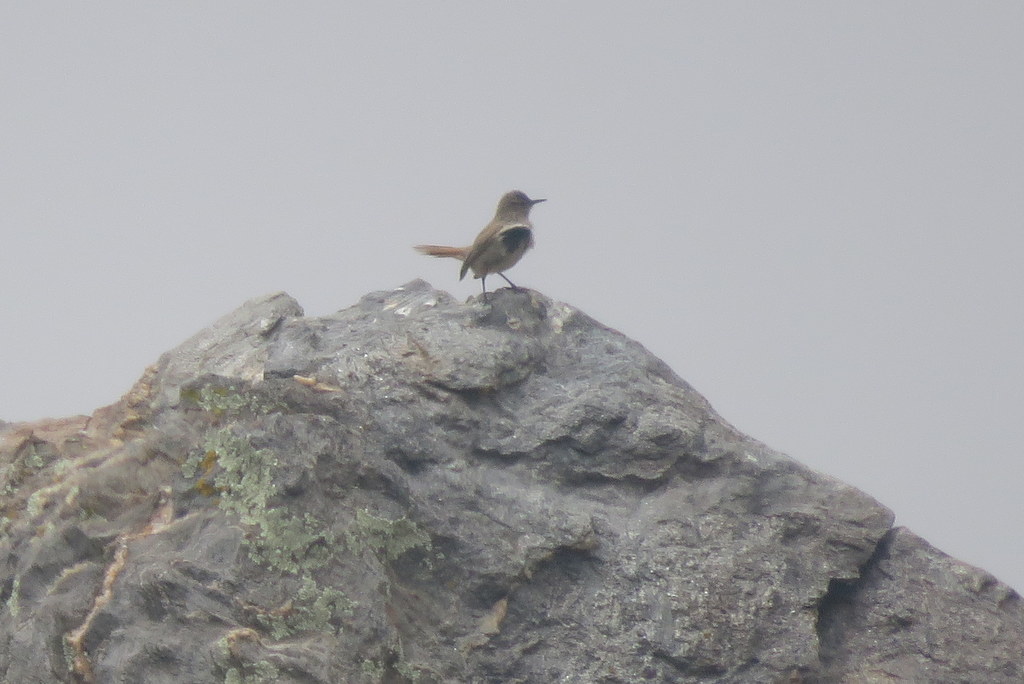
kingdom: Animalia
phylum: Chordata
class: Aves
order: Passeriformes
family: Furnariidae
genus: Asthenes
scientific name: Asthenes modesta
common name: Cordilleran canastero
